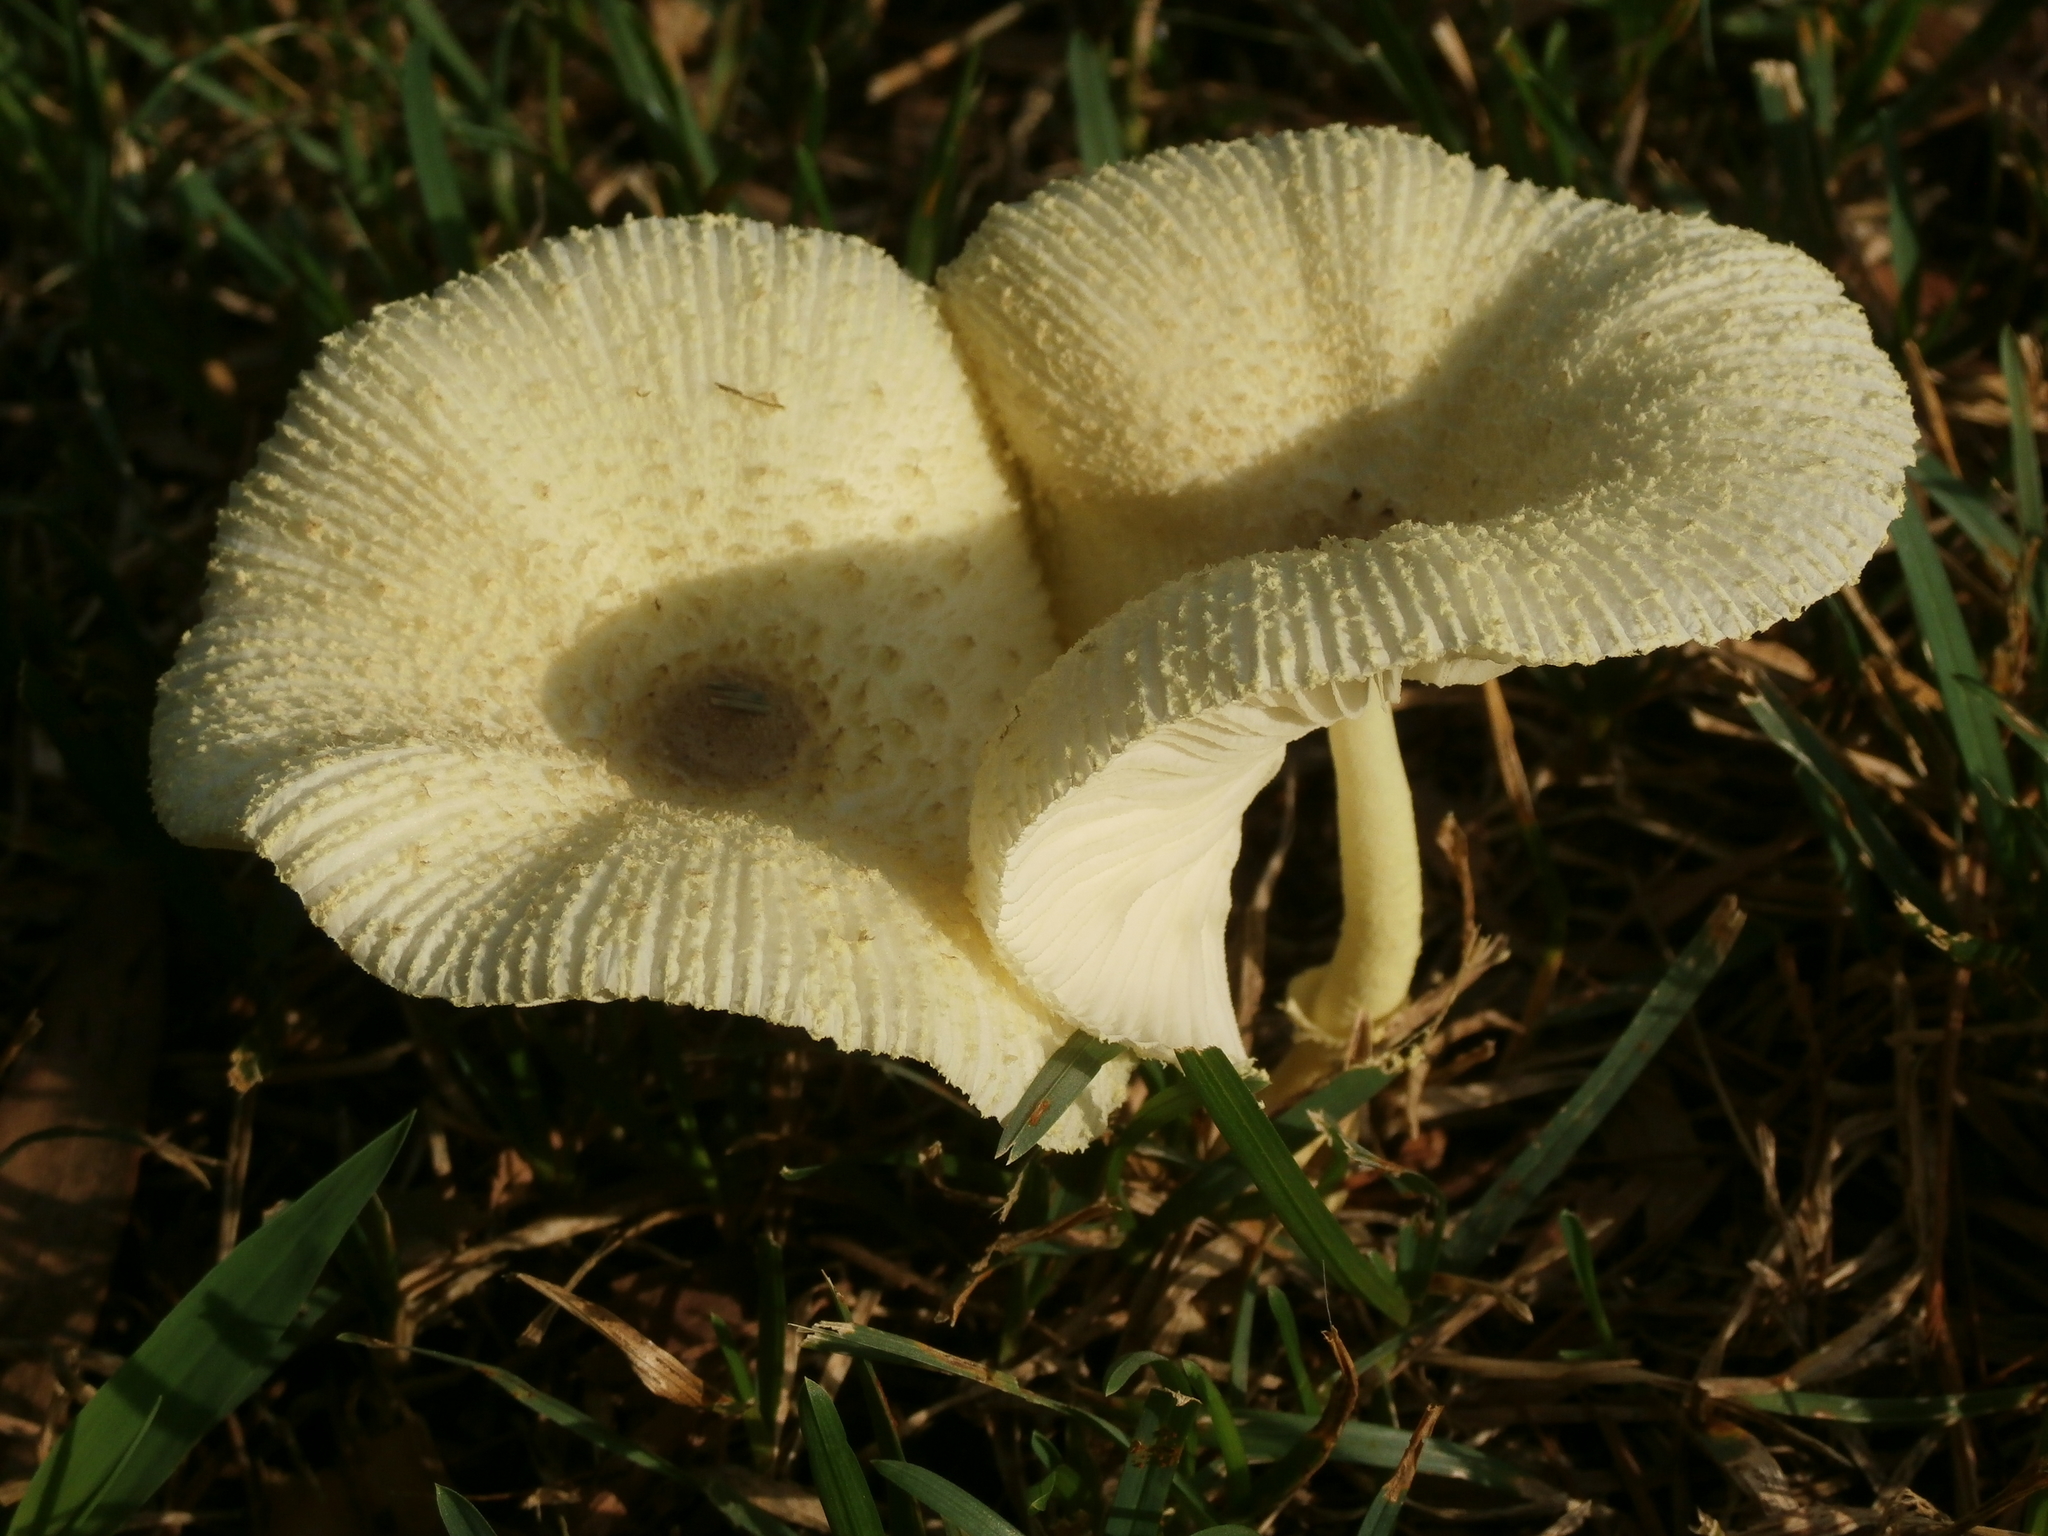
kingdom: Fungi
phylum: Basidiomycota
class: Agaricomycetes
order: Agaricales
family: Agaricaceae
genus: Leucocoprinus
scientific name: Leucocoprinus birnbaumii
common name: Plantpot dapperling
